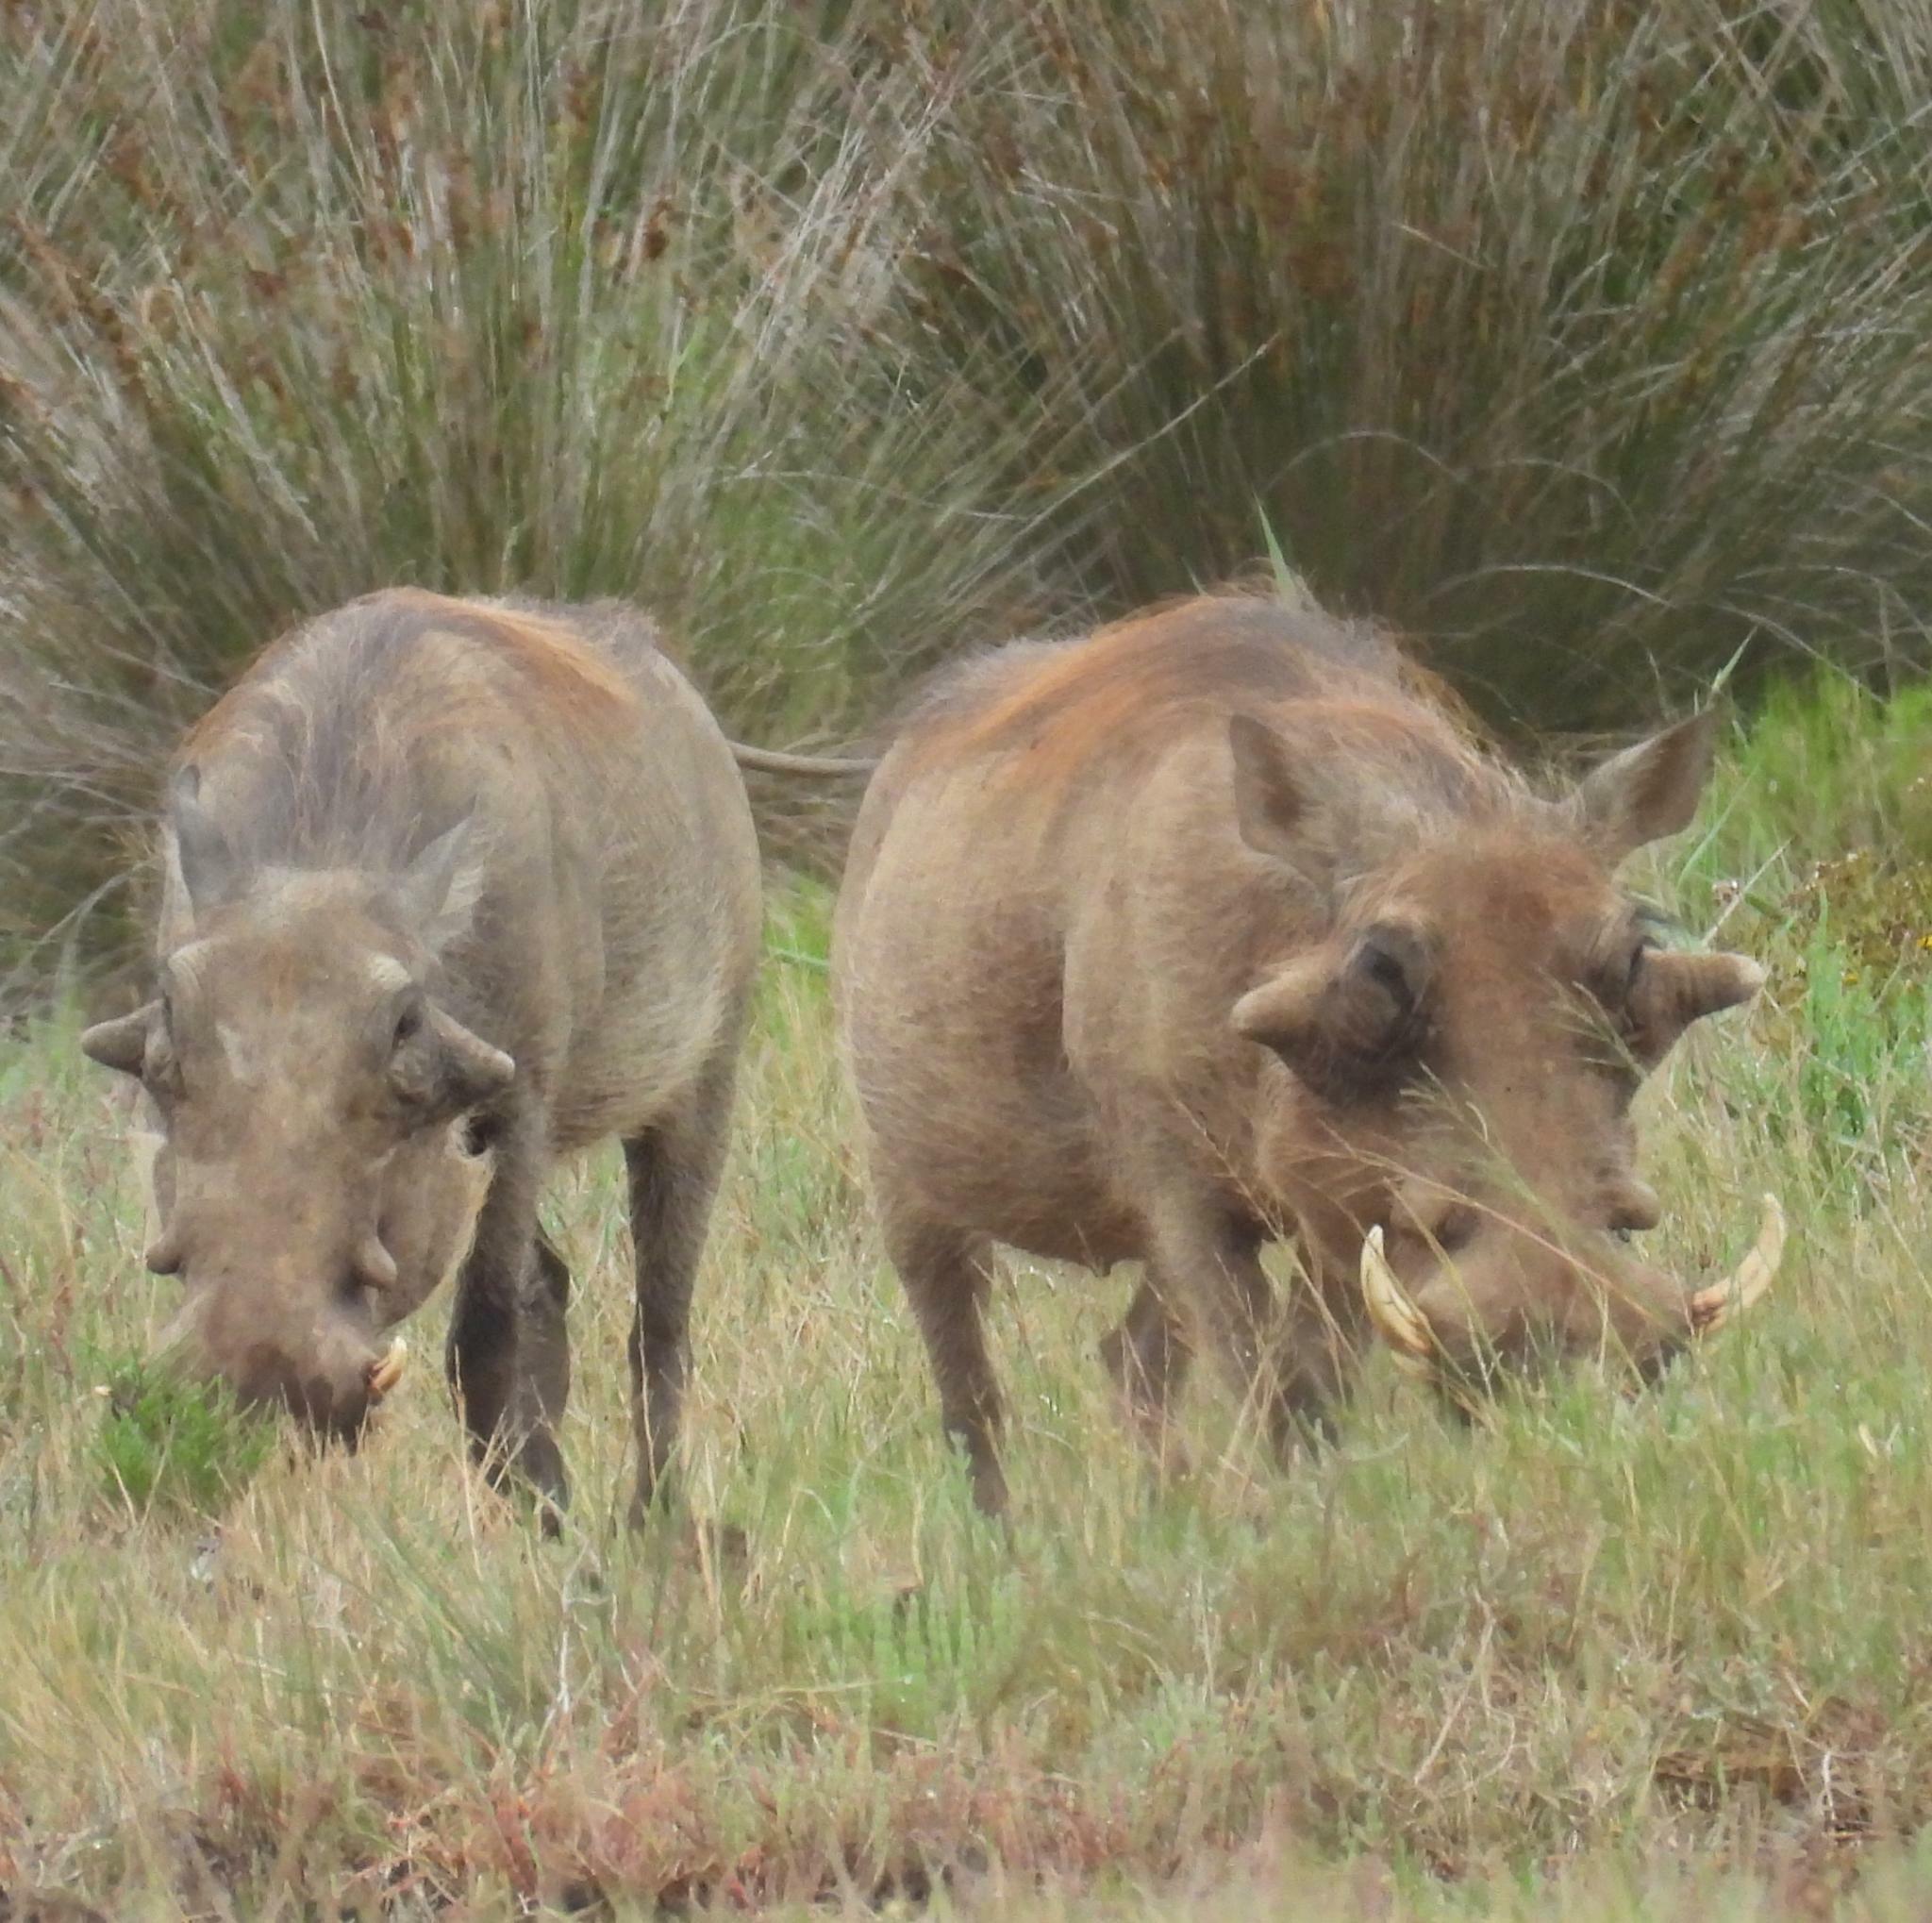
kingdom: Animalia
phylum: Chordata
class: Mammalia
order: Artiodactyla
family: Suidae
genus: Phacochoerus
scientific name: Phacochoerus africanus
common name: Common warthog
